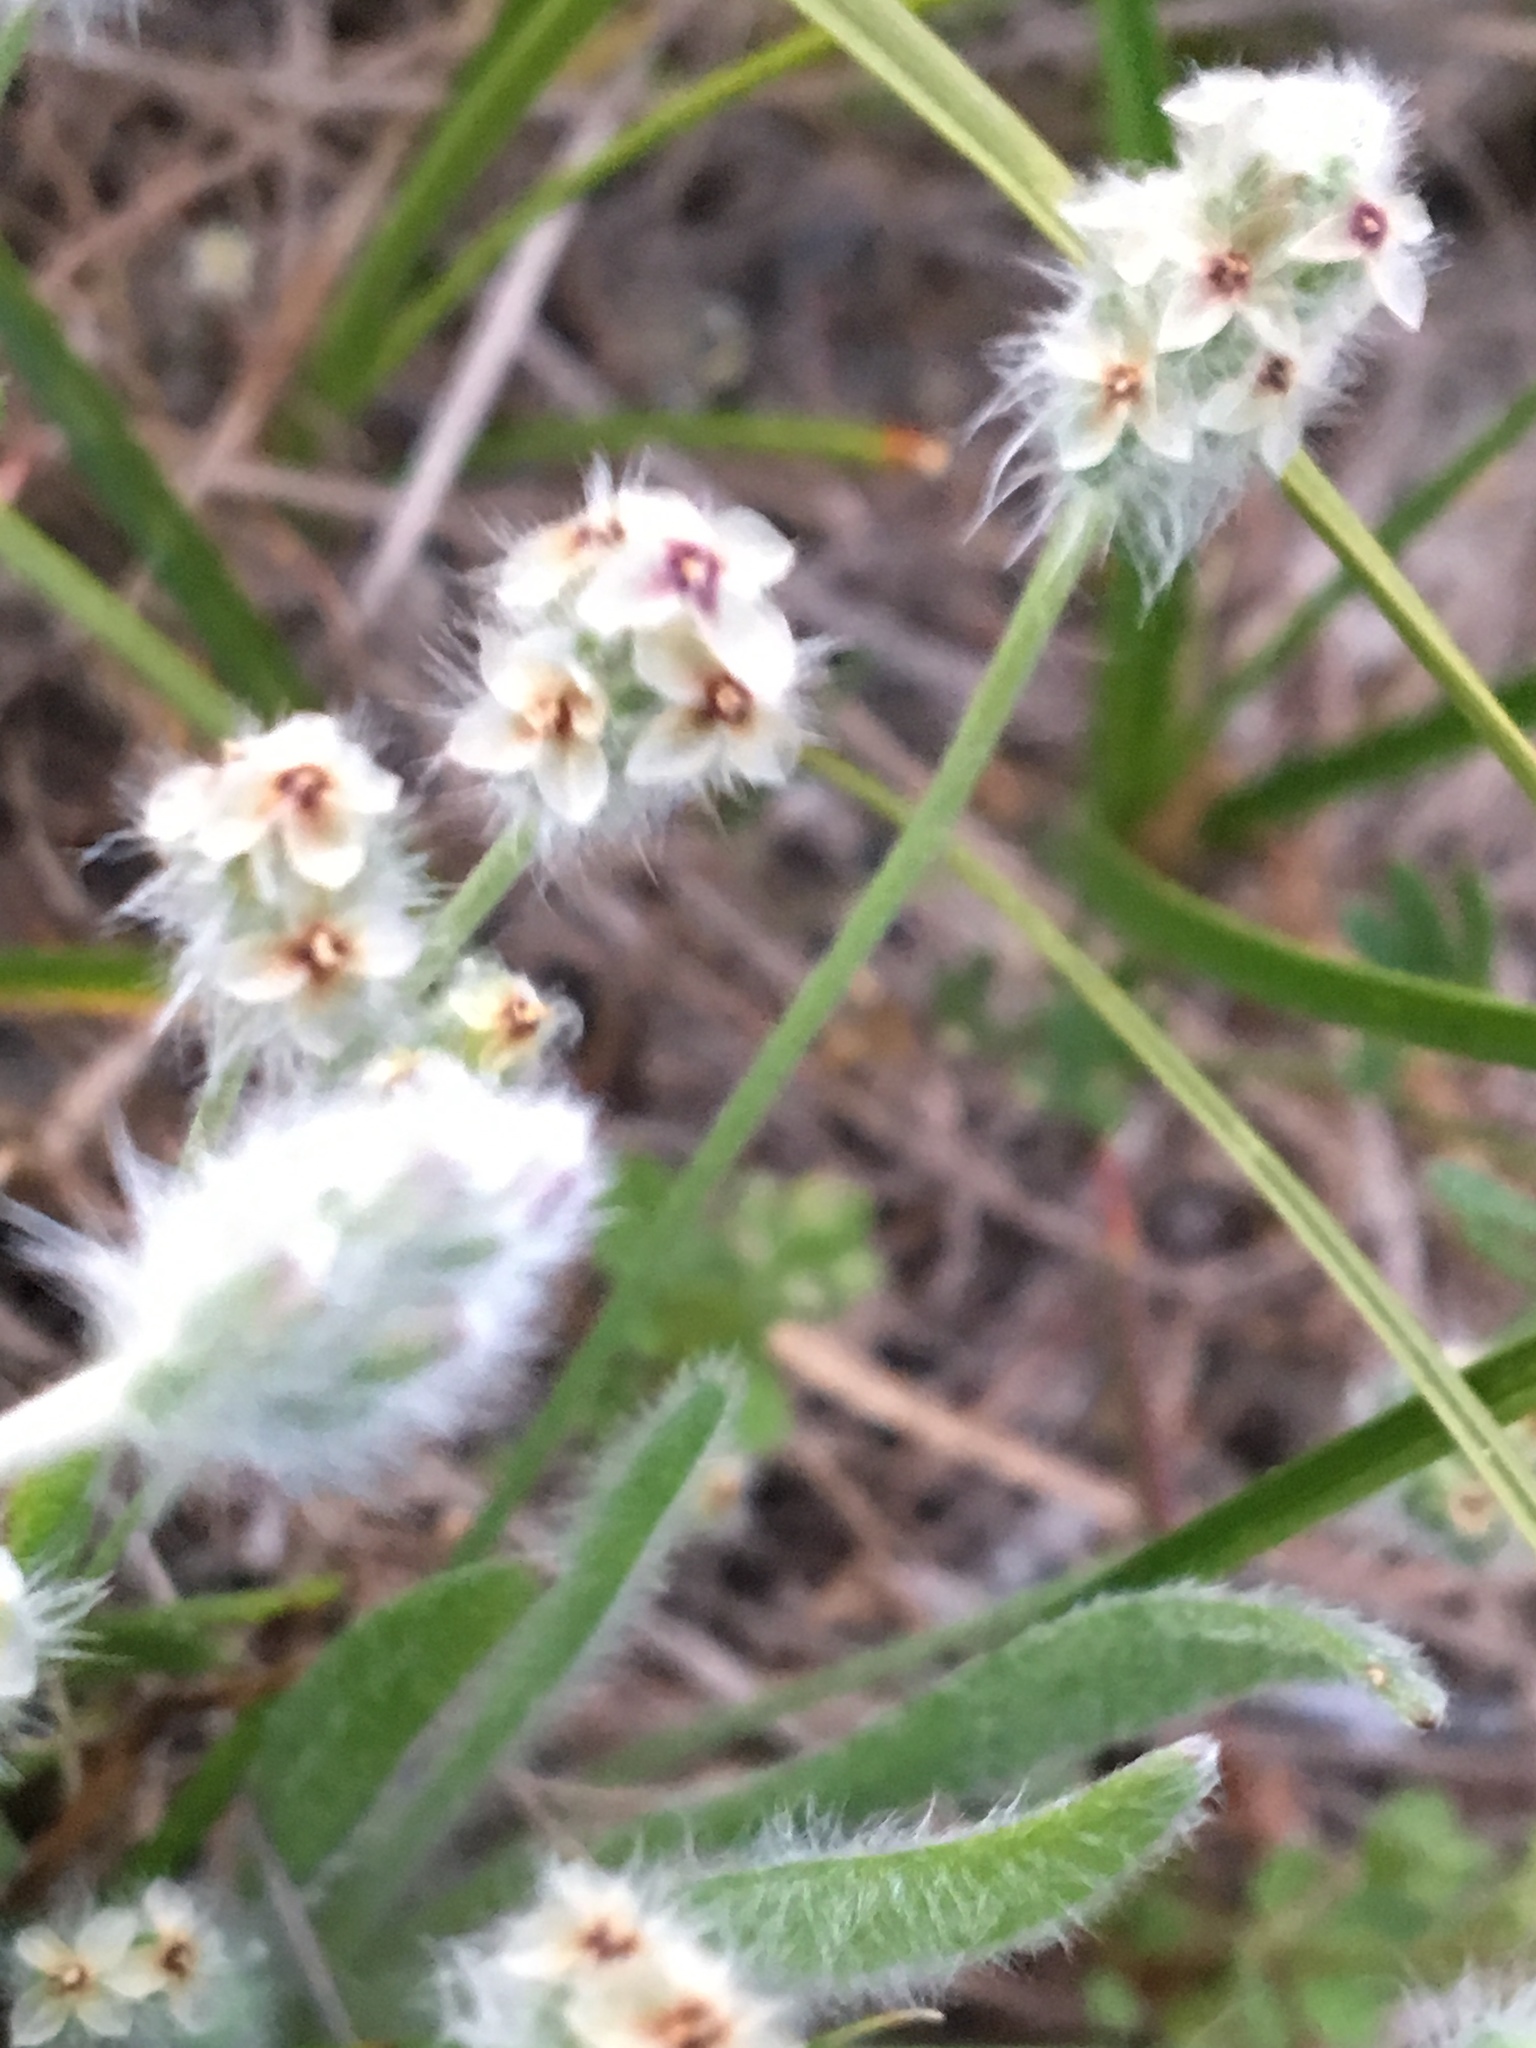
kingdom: Plantae
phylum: Tracheophyta
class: Magnoliopsida
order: Lamiales
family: Plantaginaceae
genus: Plantago
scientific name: Plantago erecta
